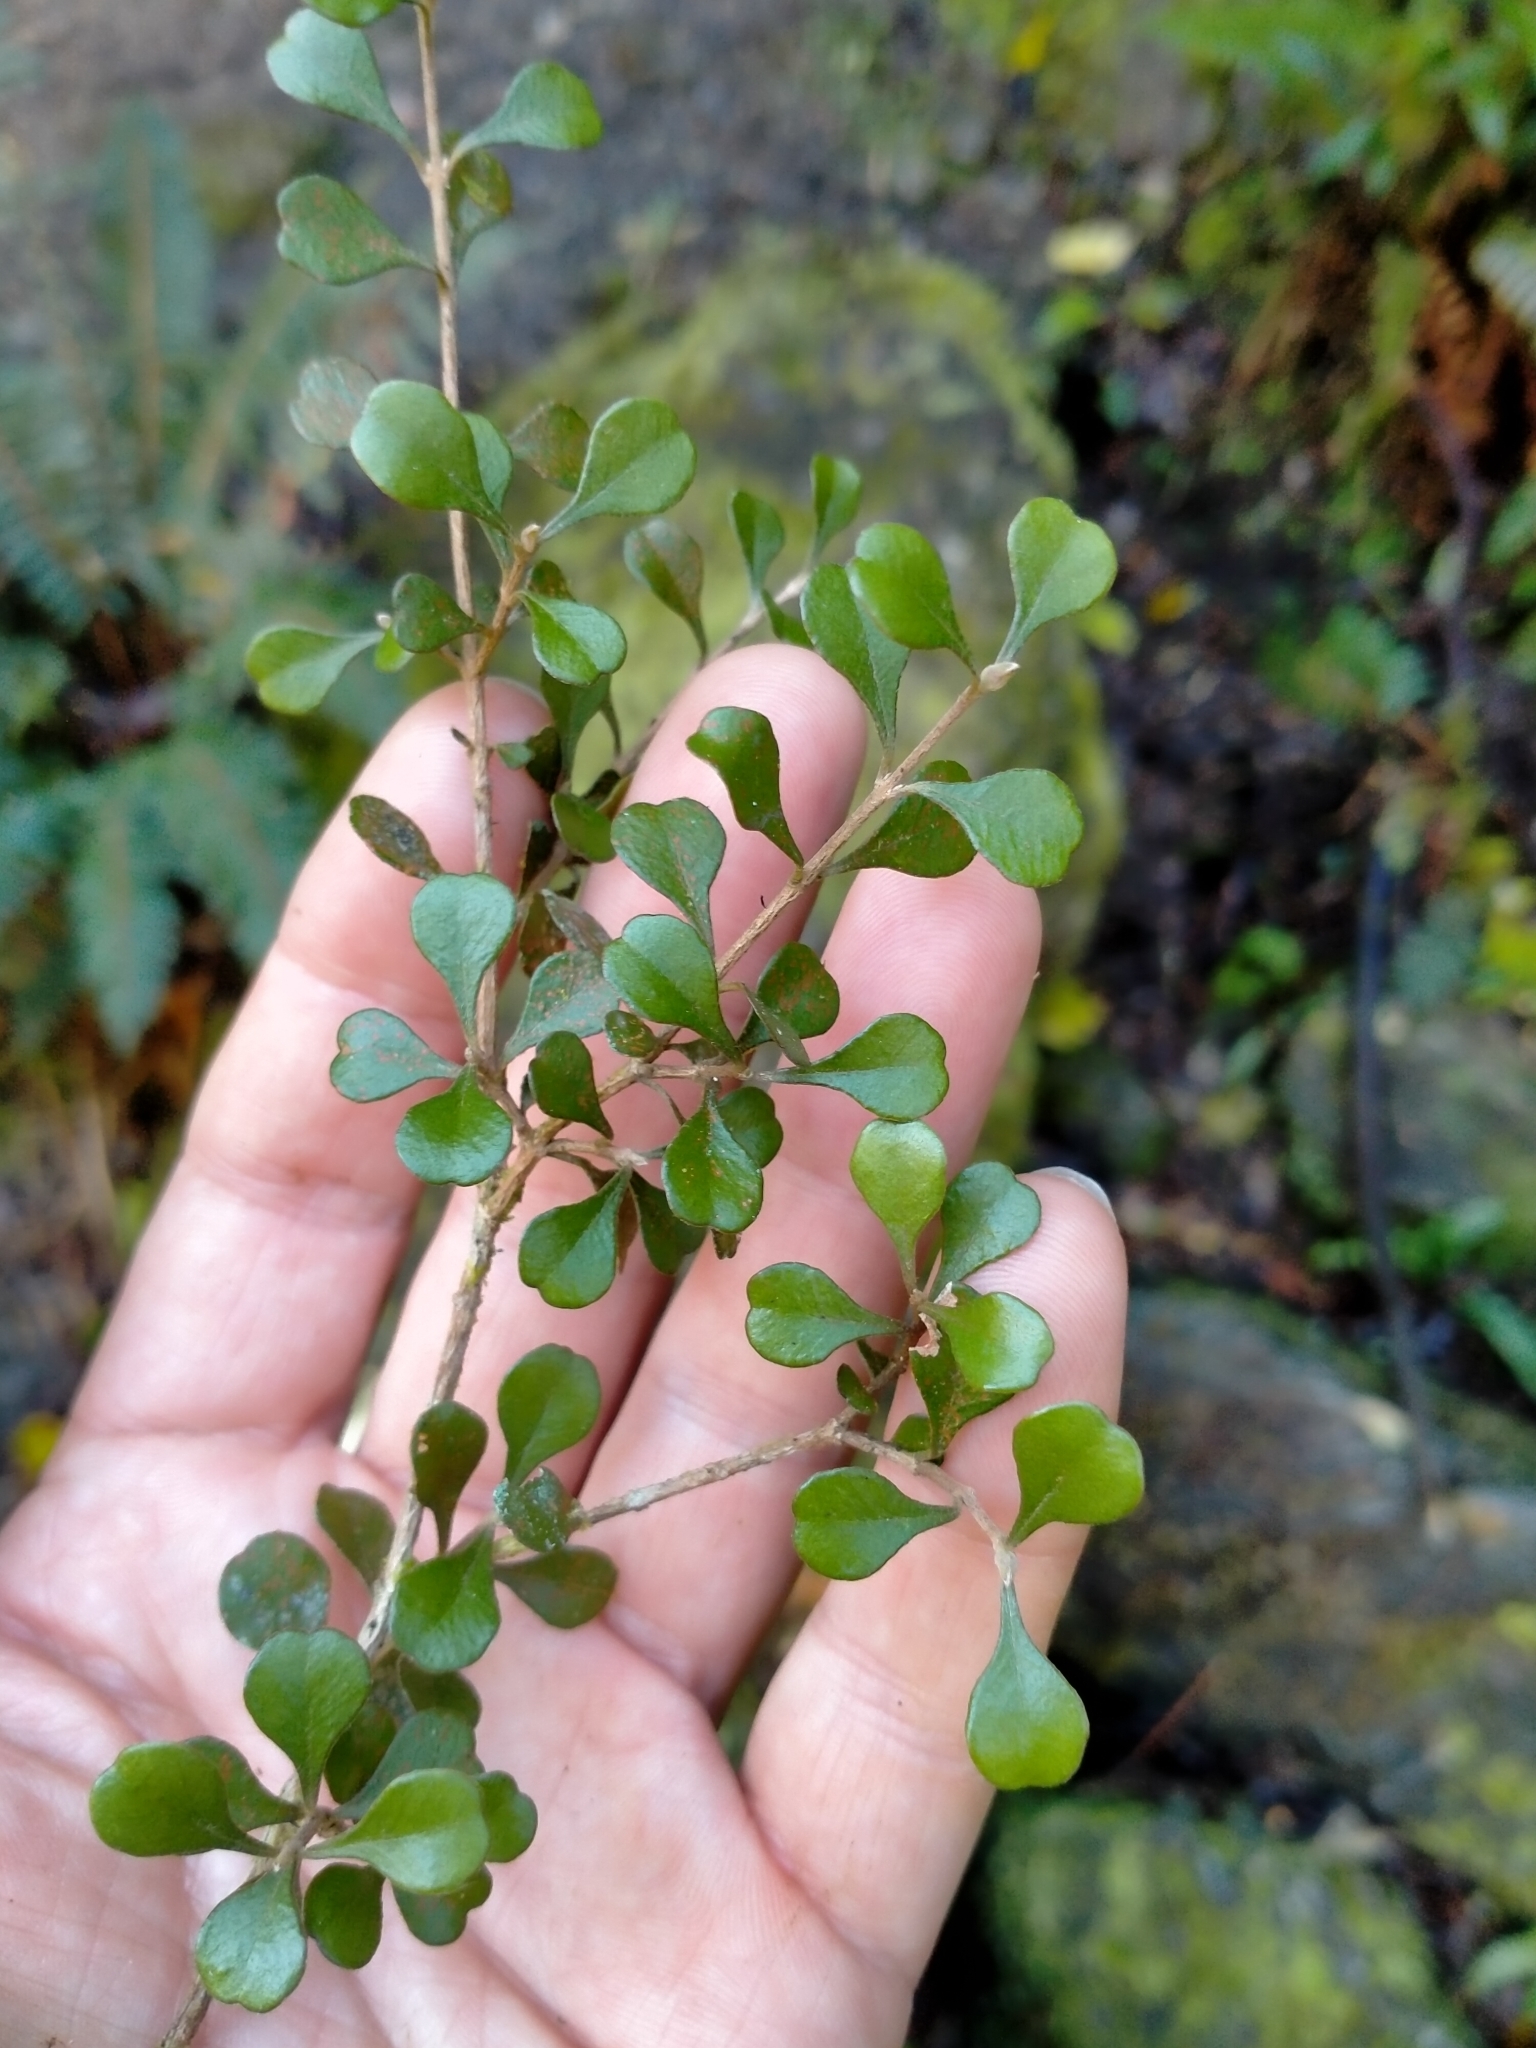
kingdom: Plantae
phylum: Tracheophyta
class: Magnoliopsida
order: Myrtales
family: Myrtaceae
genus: Lophomyrtus
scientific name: Lophomyrtus obcordata
